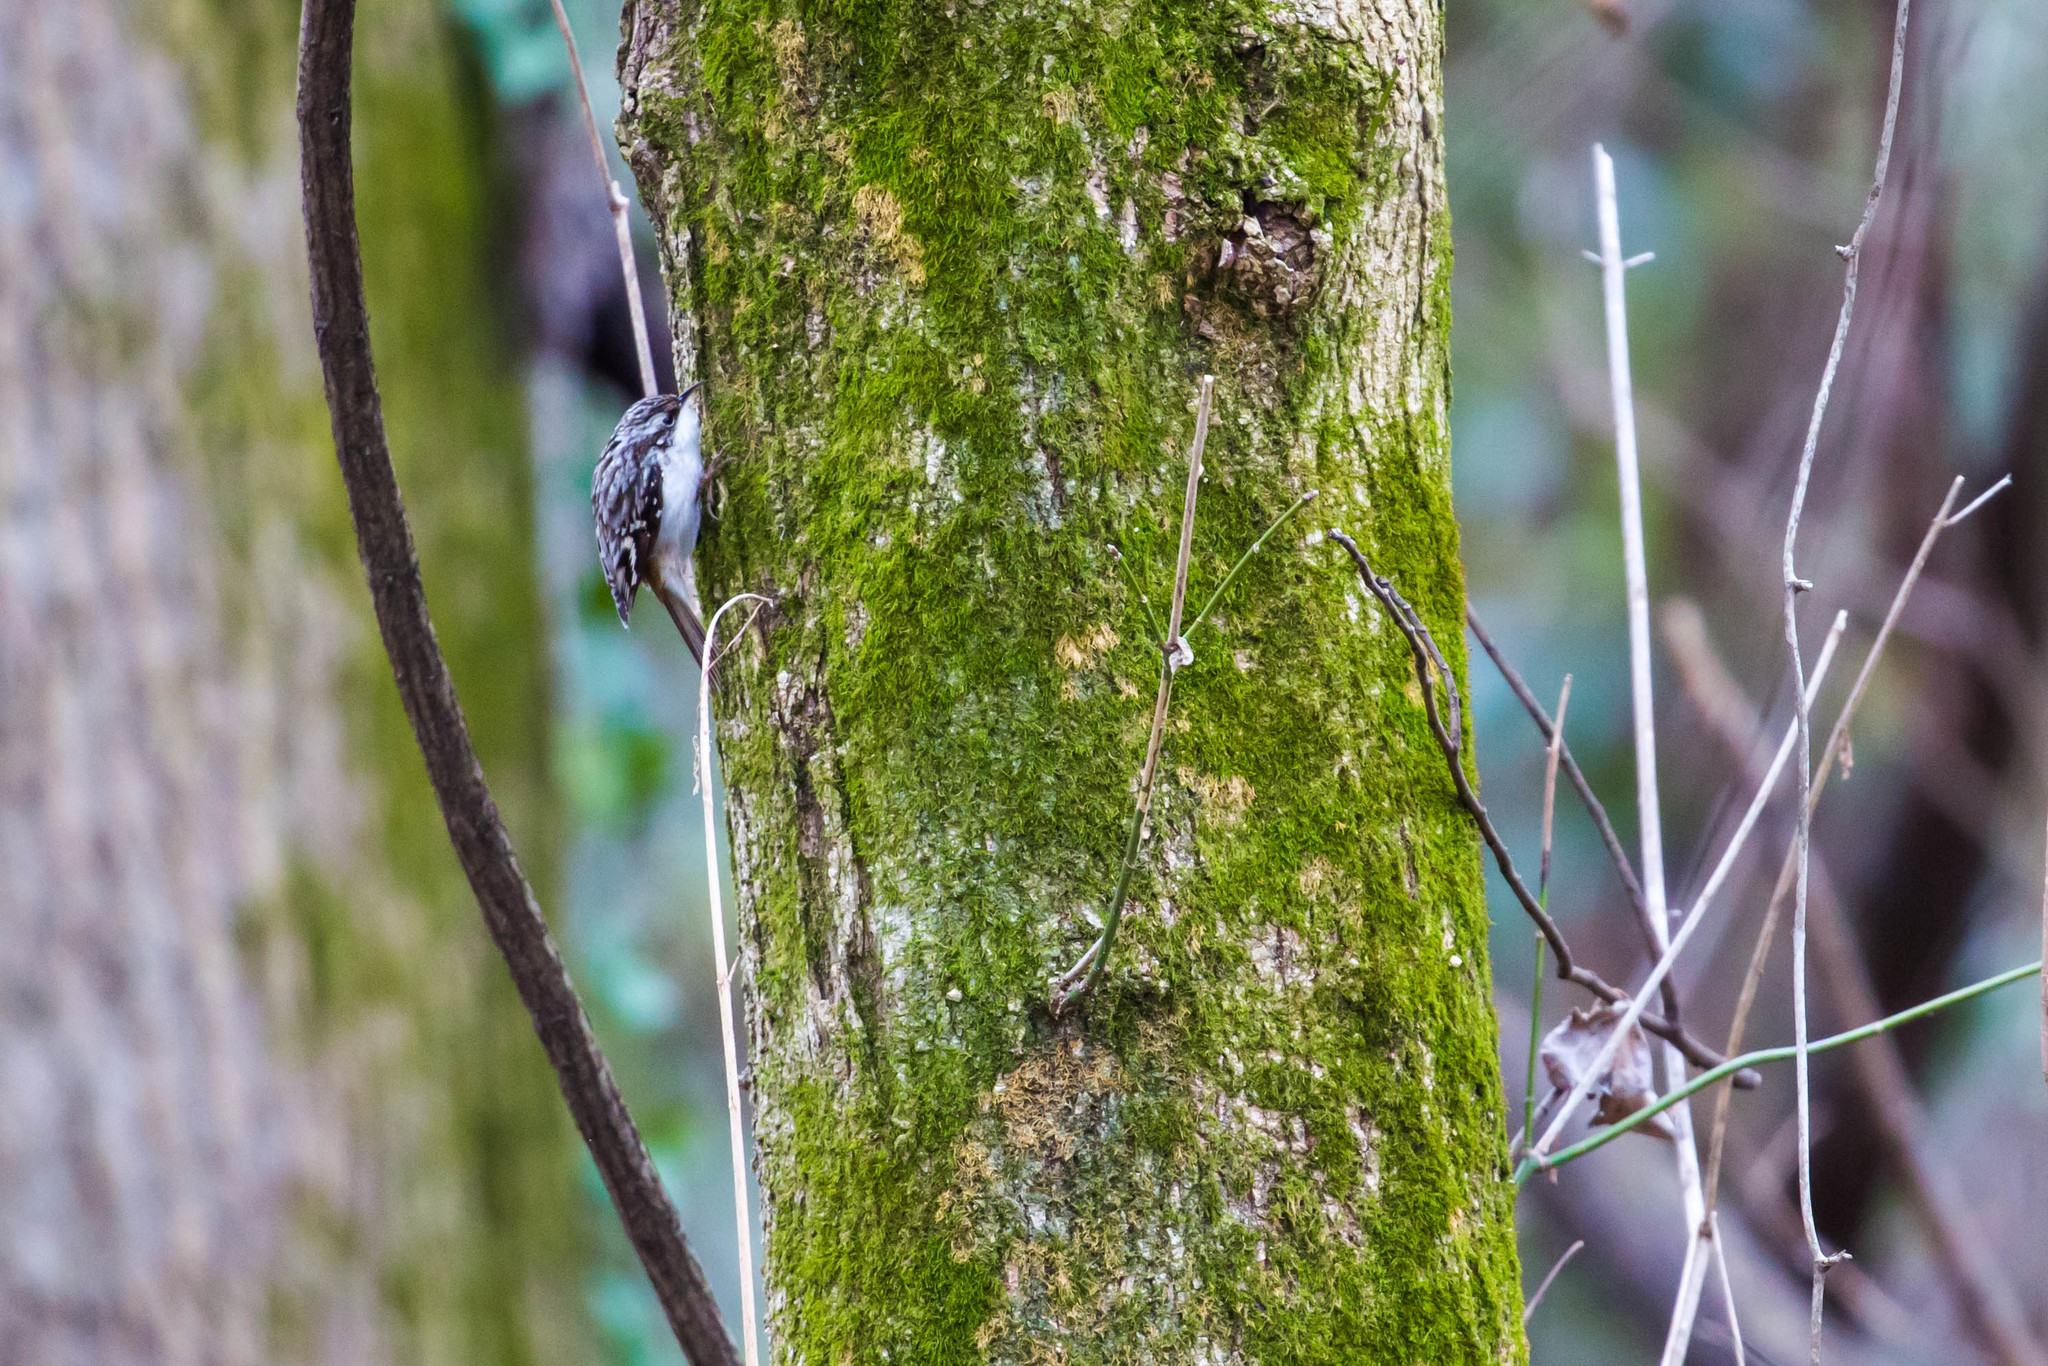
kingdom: Animalia
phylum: Chordata
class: Aves
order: Passeriformes
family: Certhiidae
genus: Certhia
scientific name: Certhia americana
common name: Brown creeper
